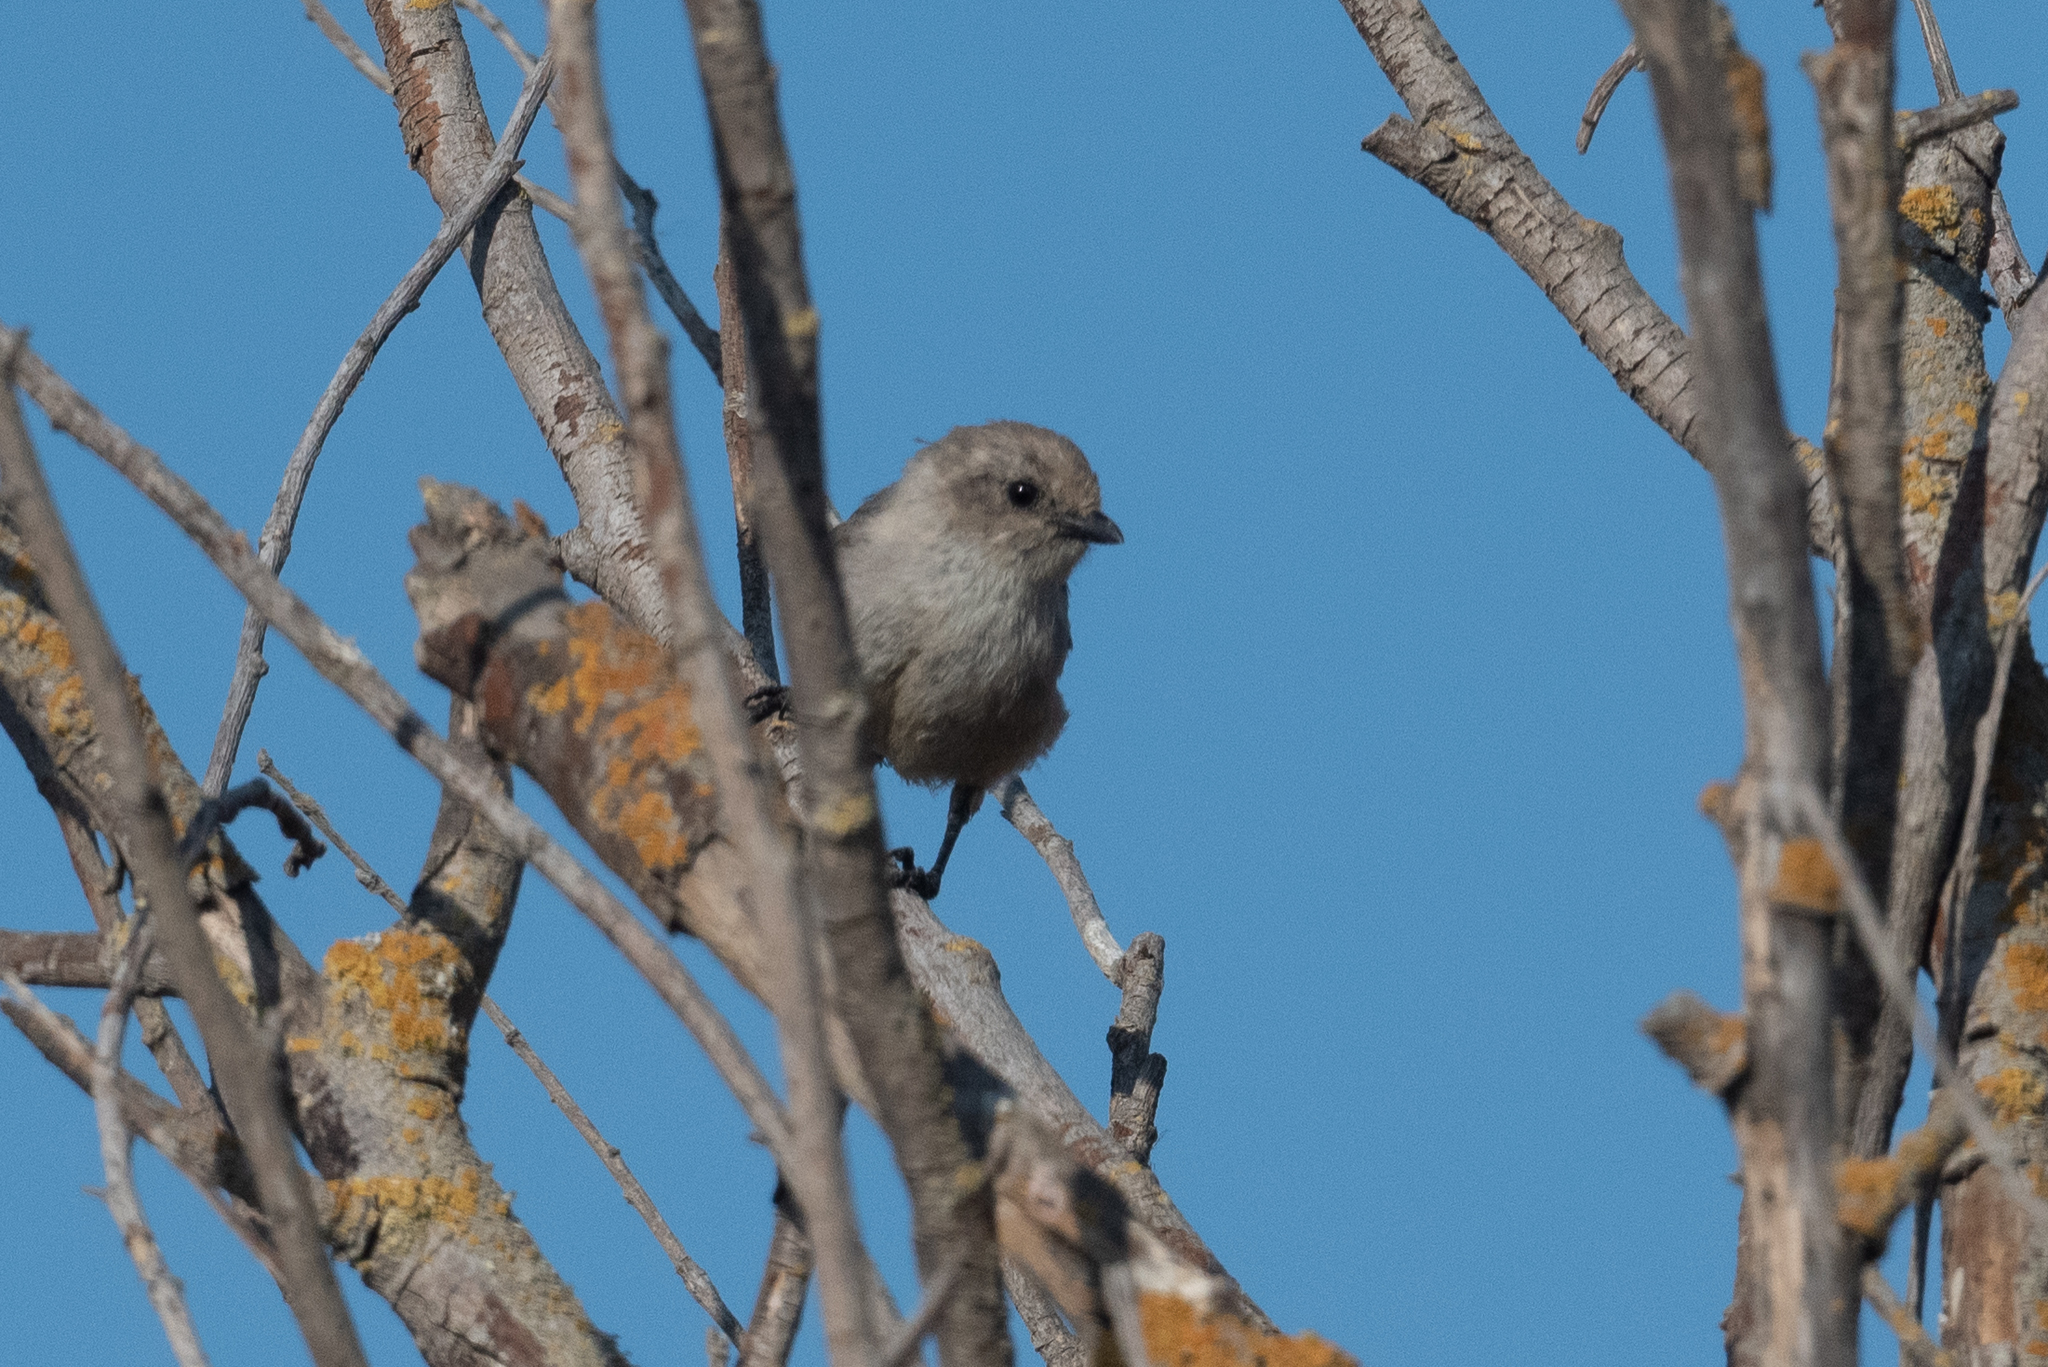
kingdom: Animalia
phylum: Chordata
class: Aves
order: Passeriformes
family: Aegithalidae
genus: Psaltriparus
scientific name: Psaltriparus minimus
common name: American bushtit
